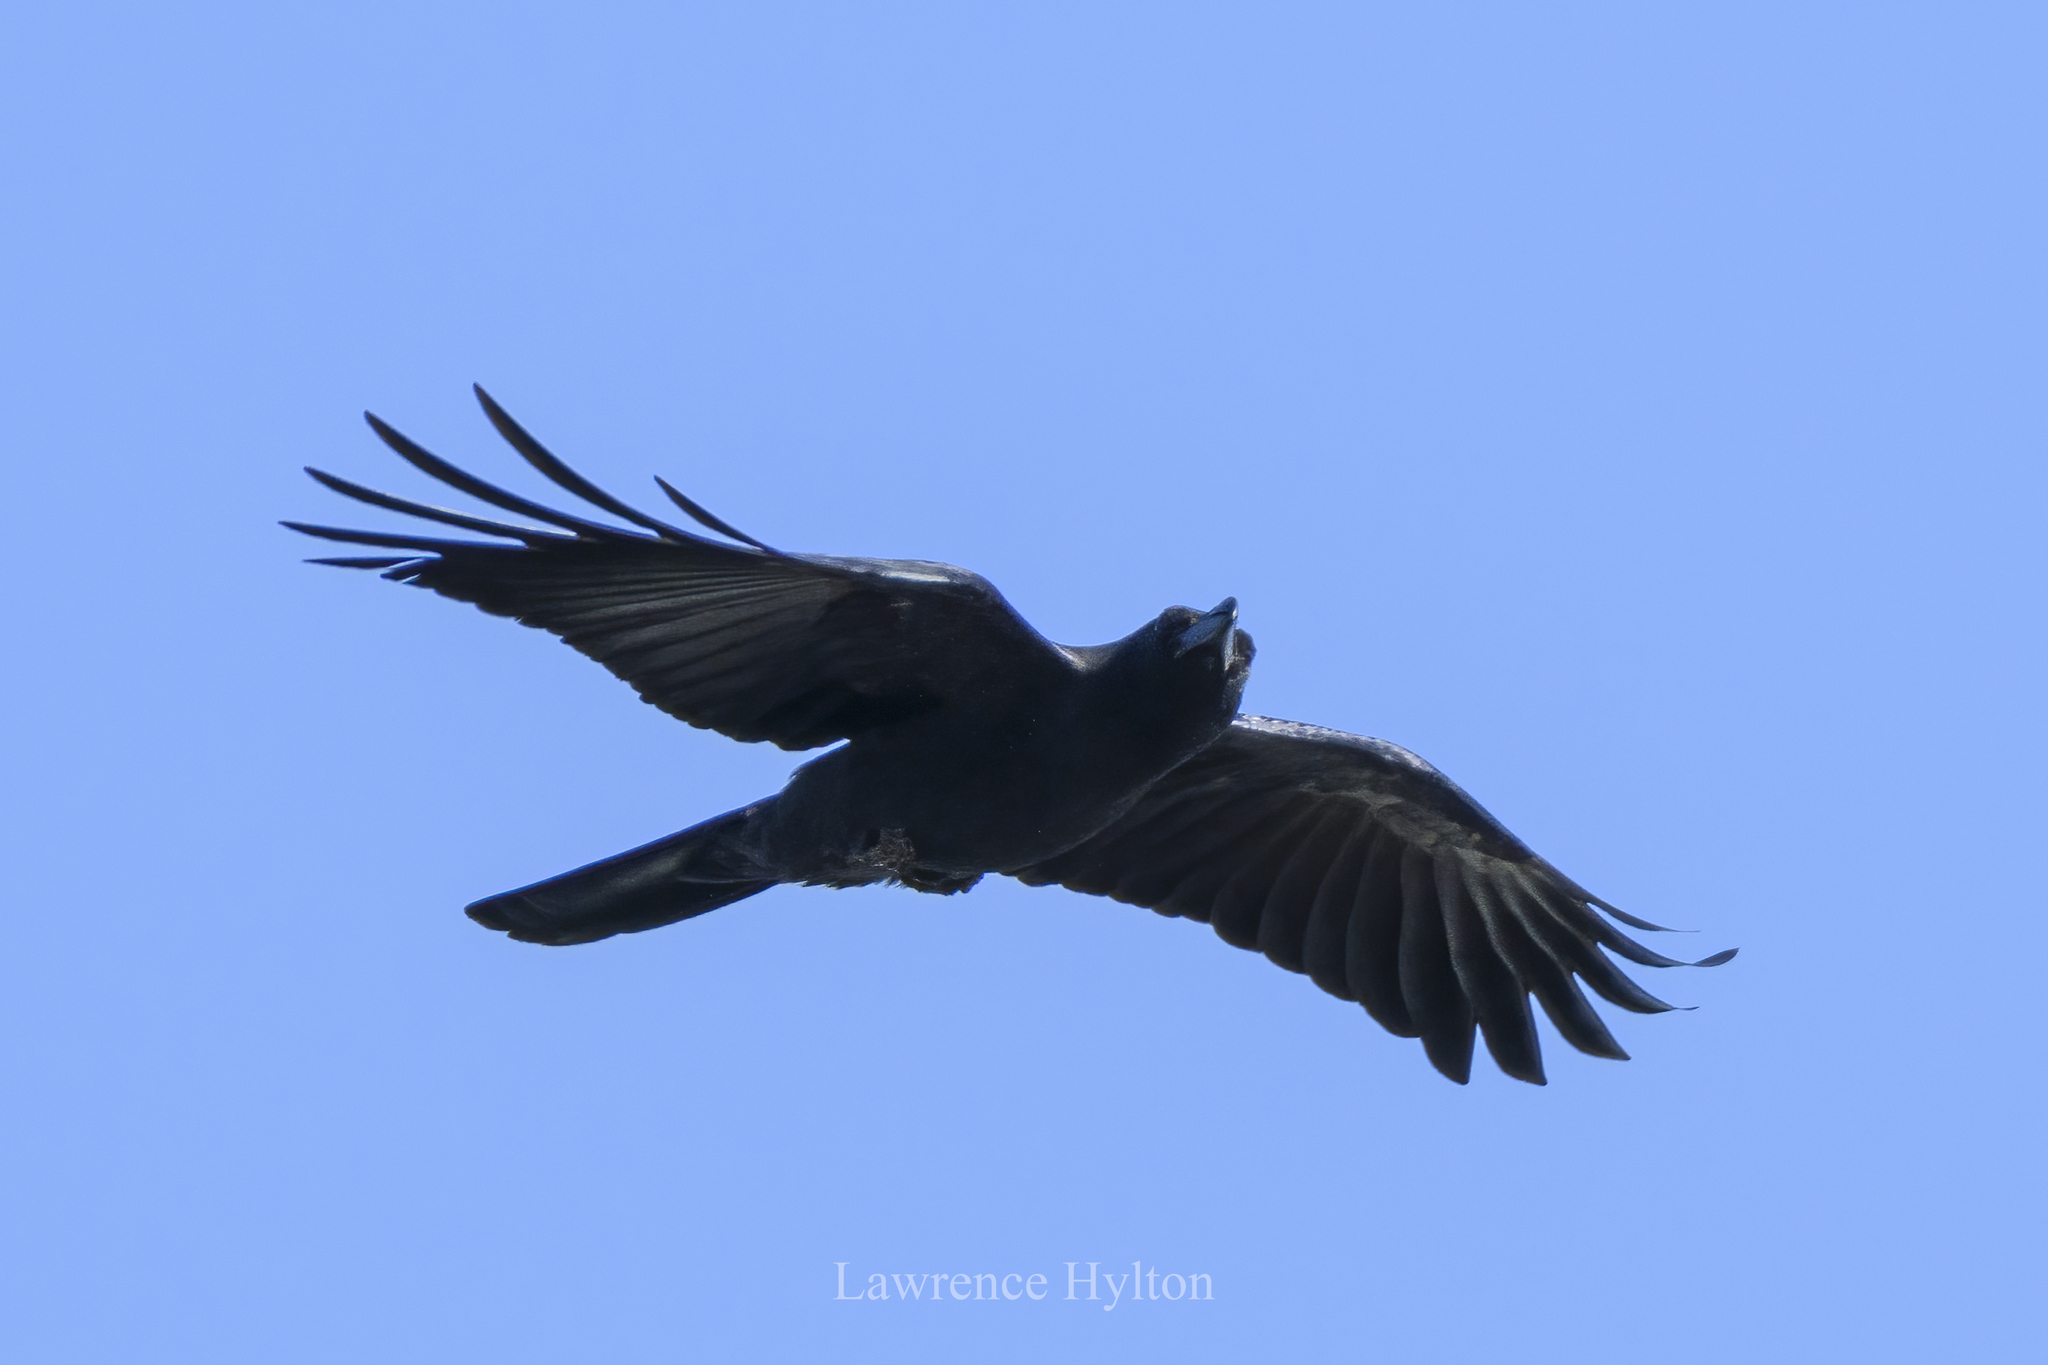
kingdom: Animalia
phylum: Chordata
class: Aves
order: Passeriformes
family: Corvidae
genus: Corvus
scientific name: Corvus macrorhynchos
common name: Large-billed crow
